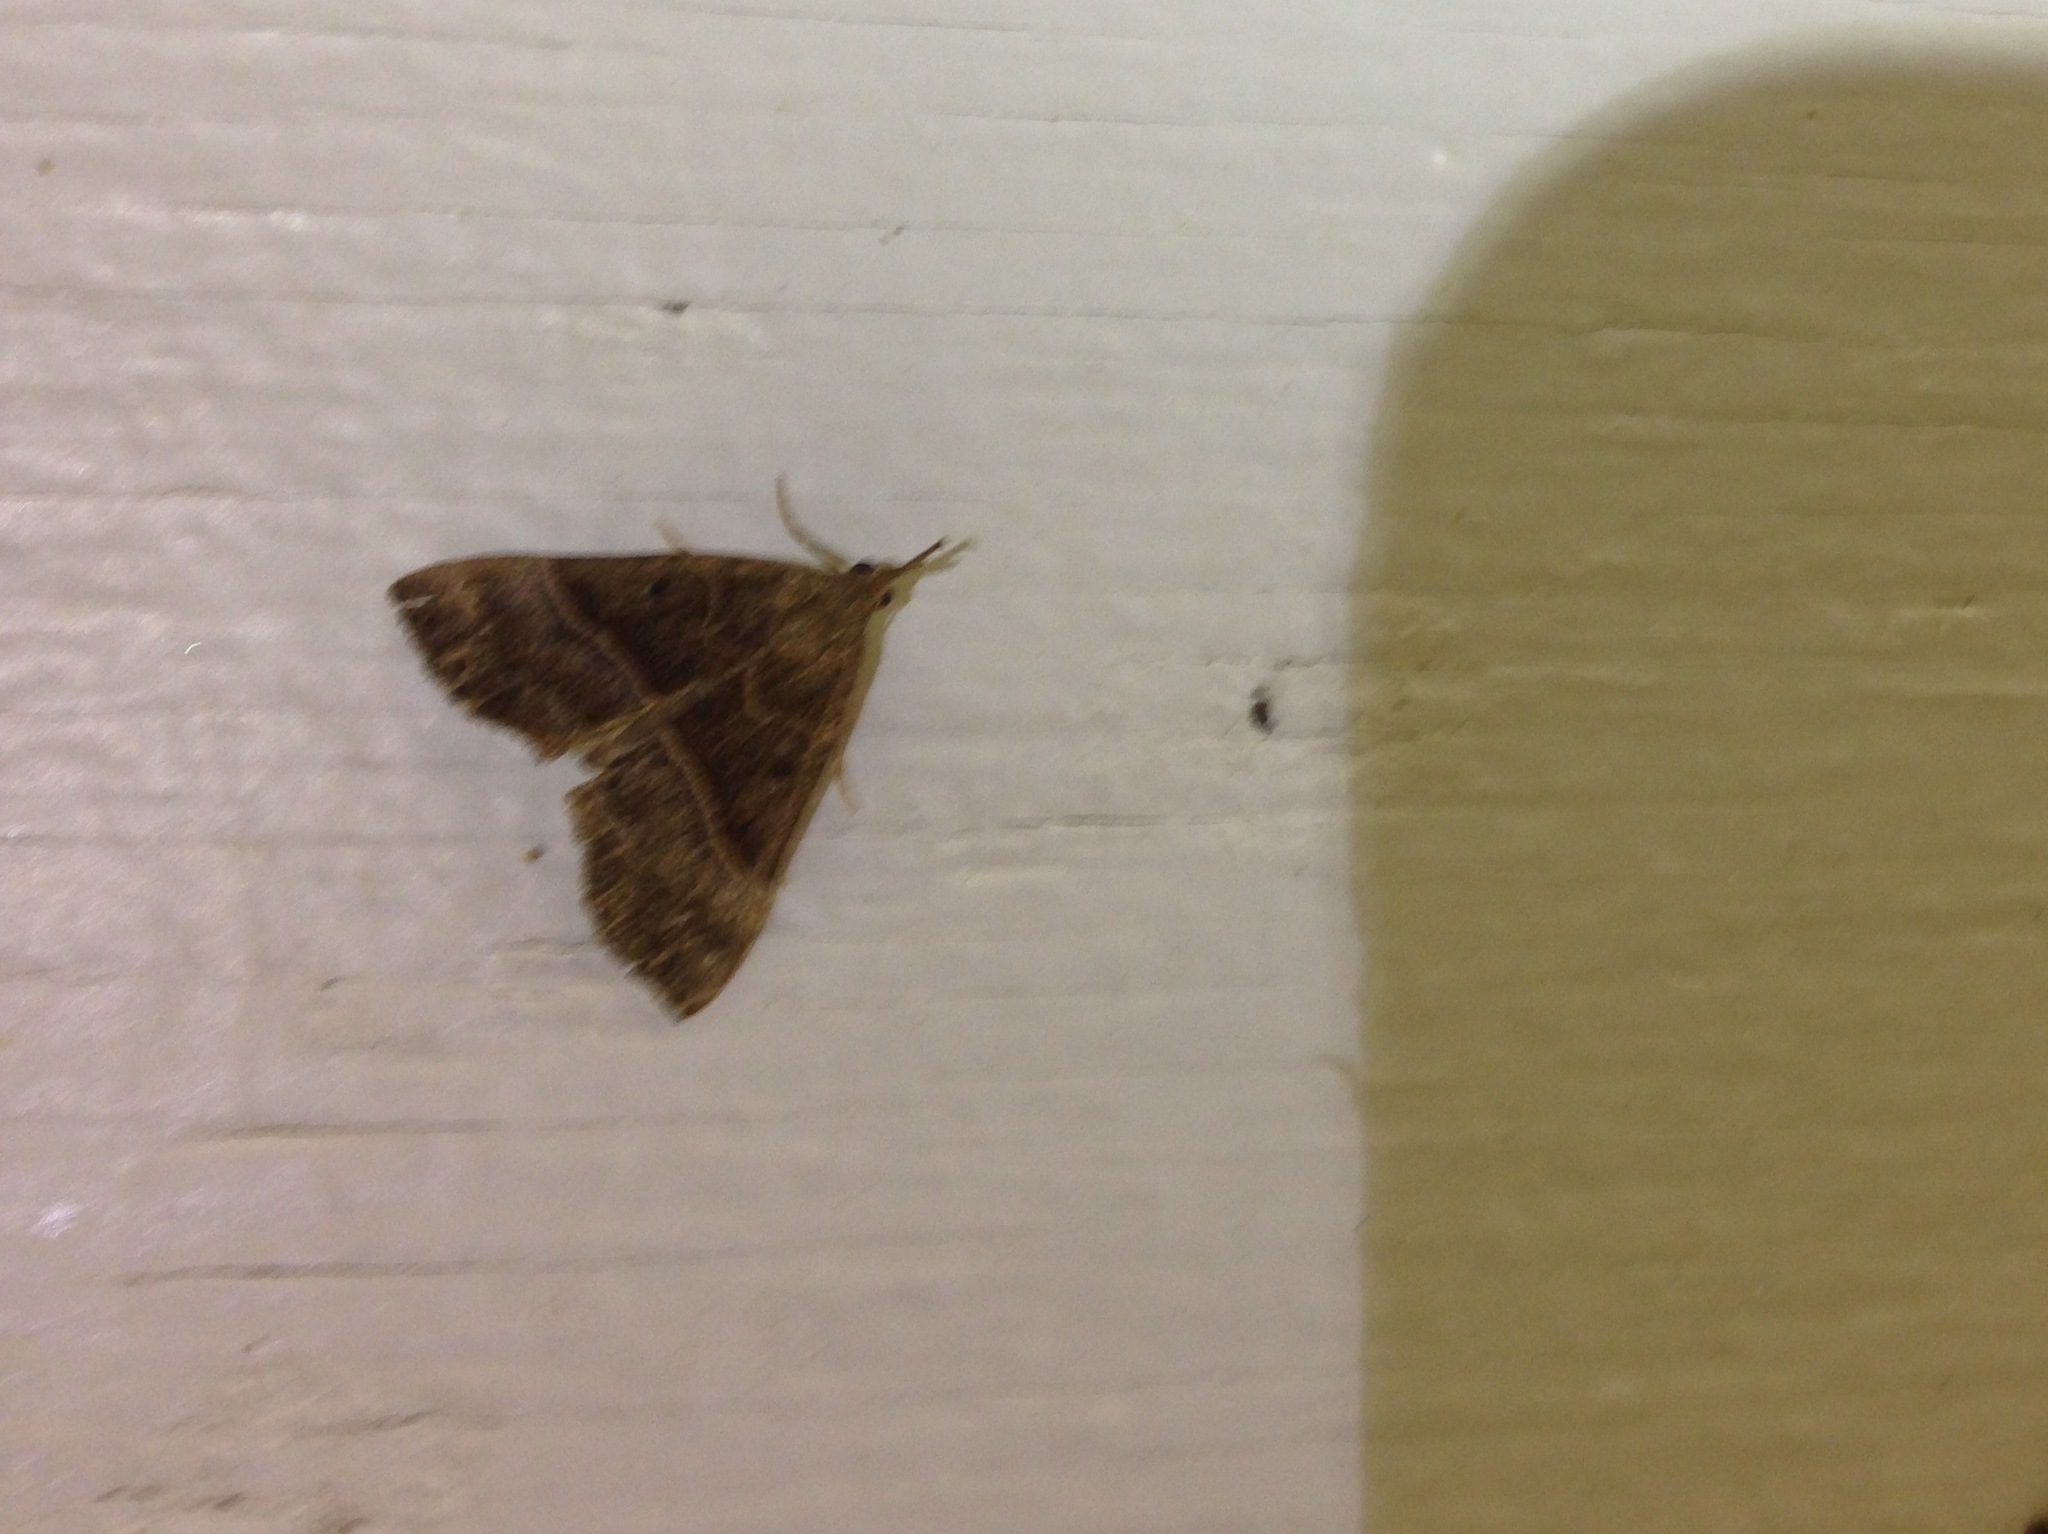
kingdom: Animalia
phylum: Arthropoda
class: Insecta
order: Lepidoptera
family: Erebidae
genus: Hypena
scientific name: Hypena eductalis
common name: Red-footed snout
